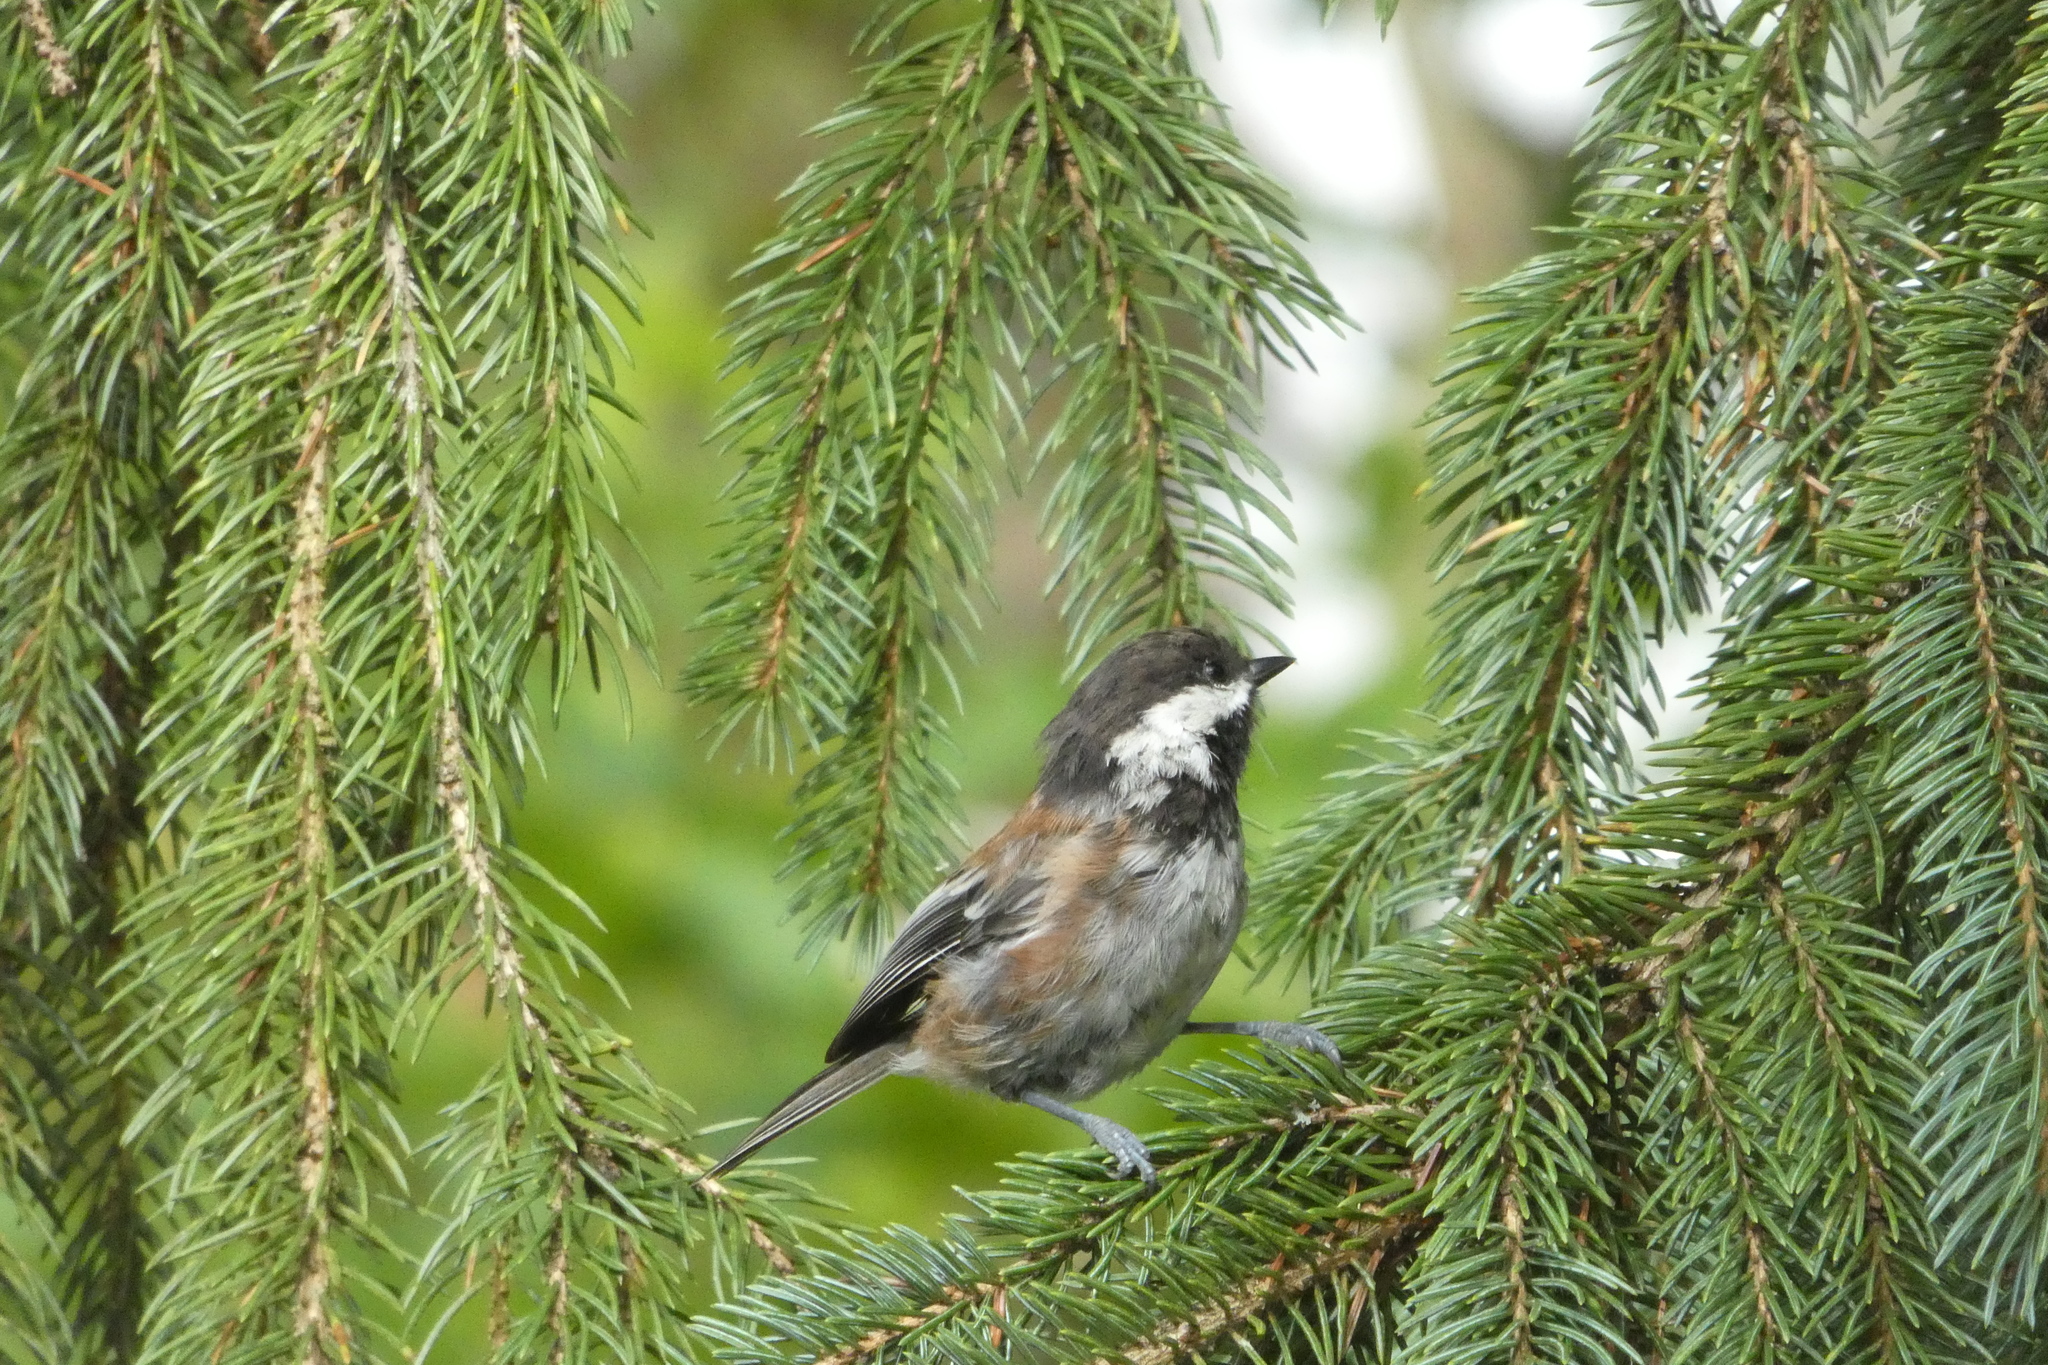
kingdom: Animalia
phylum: Chordata
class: Aves
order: Passeriformes
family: Paridae
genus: Poecile
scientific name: Poecile rufescens
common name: Chestnut-backed chickadee
